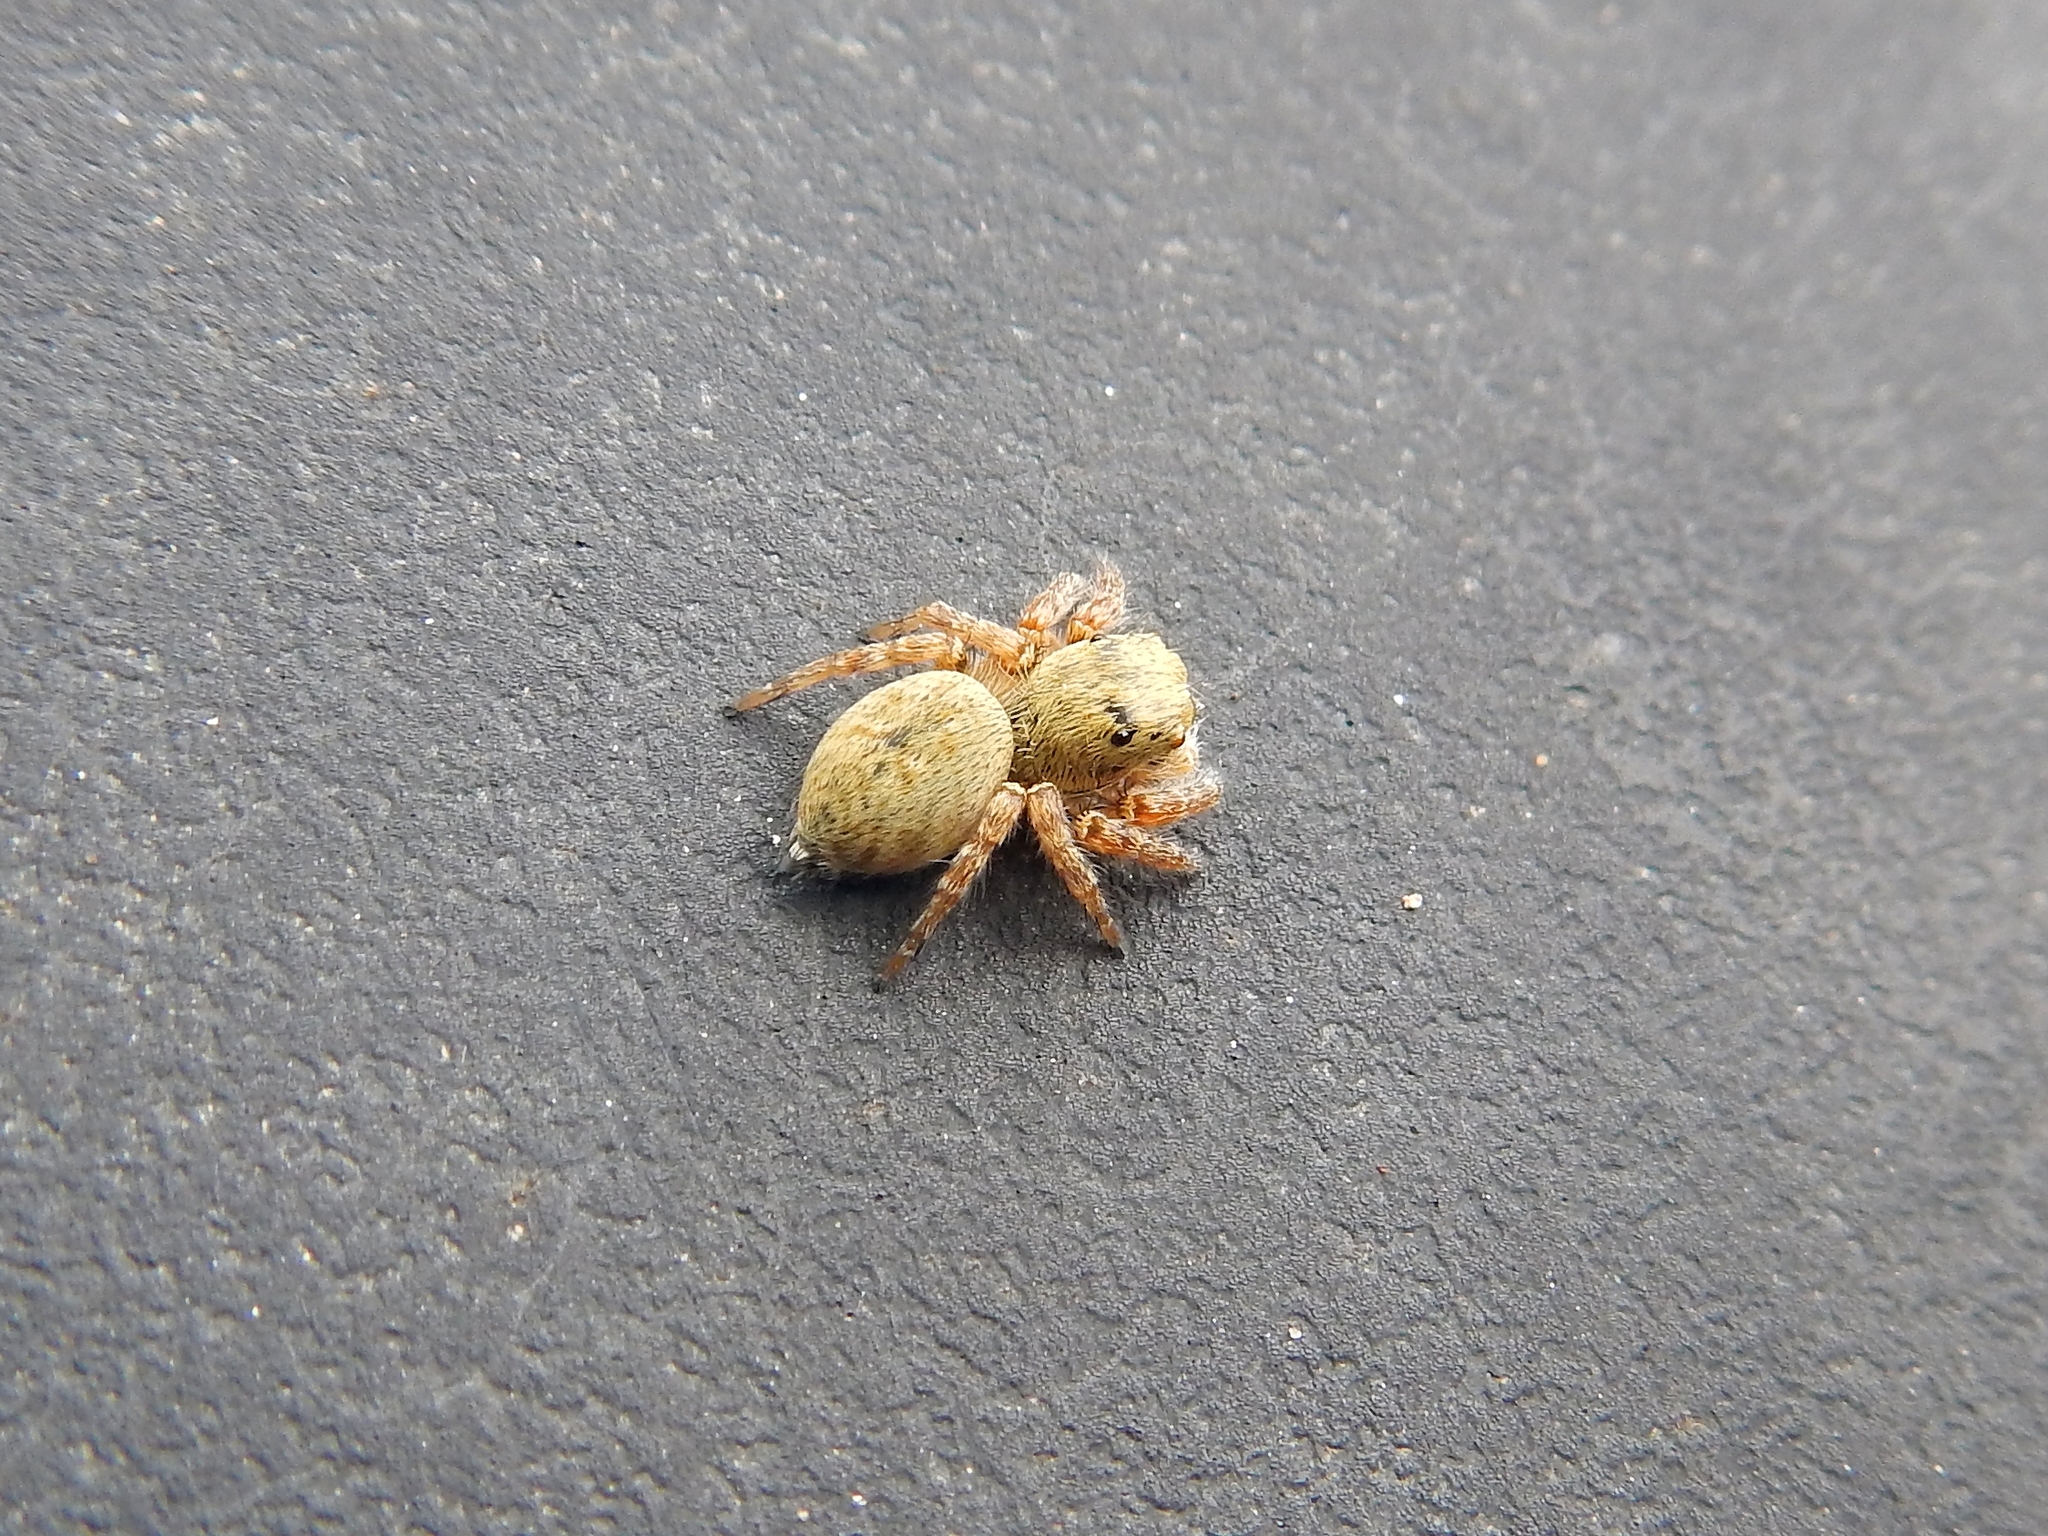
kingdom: Animalia
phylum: Arthropoda
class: Arachnida
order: Araneae
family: Salticidae
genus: Carrhotus
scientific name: Carrhotus xanthogramma
